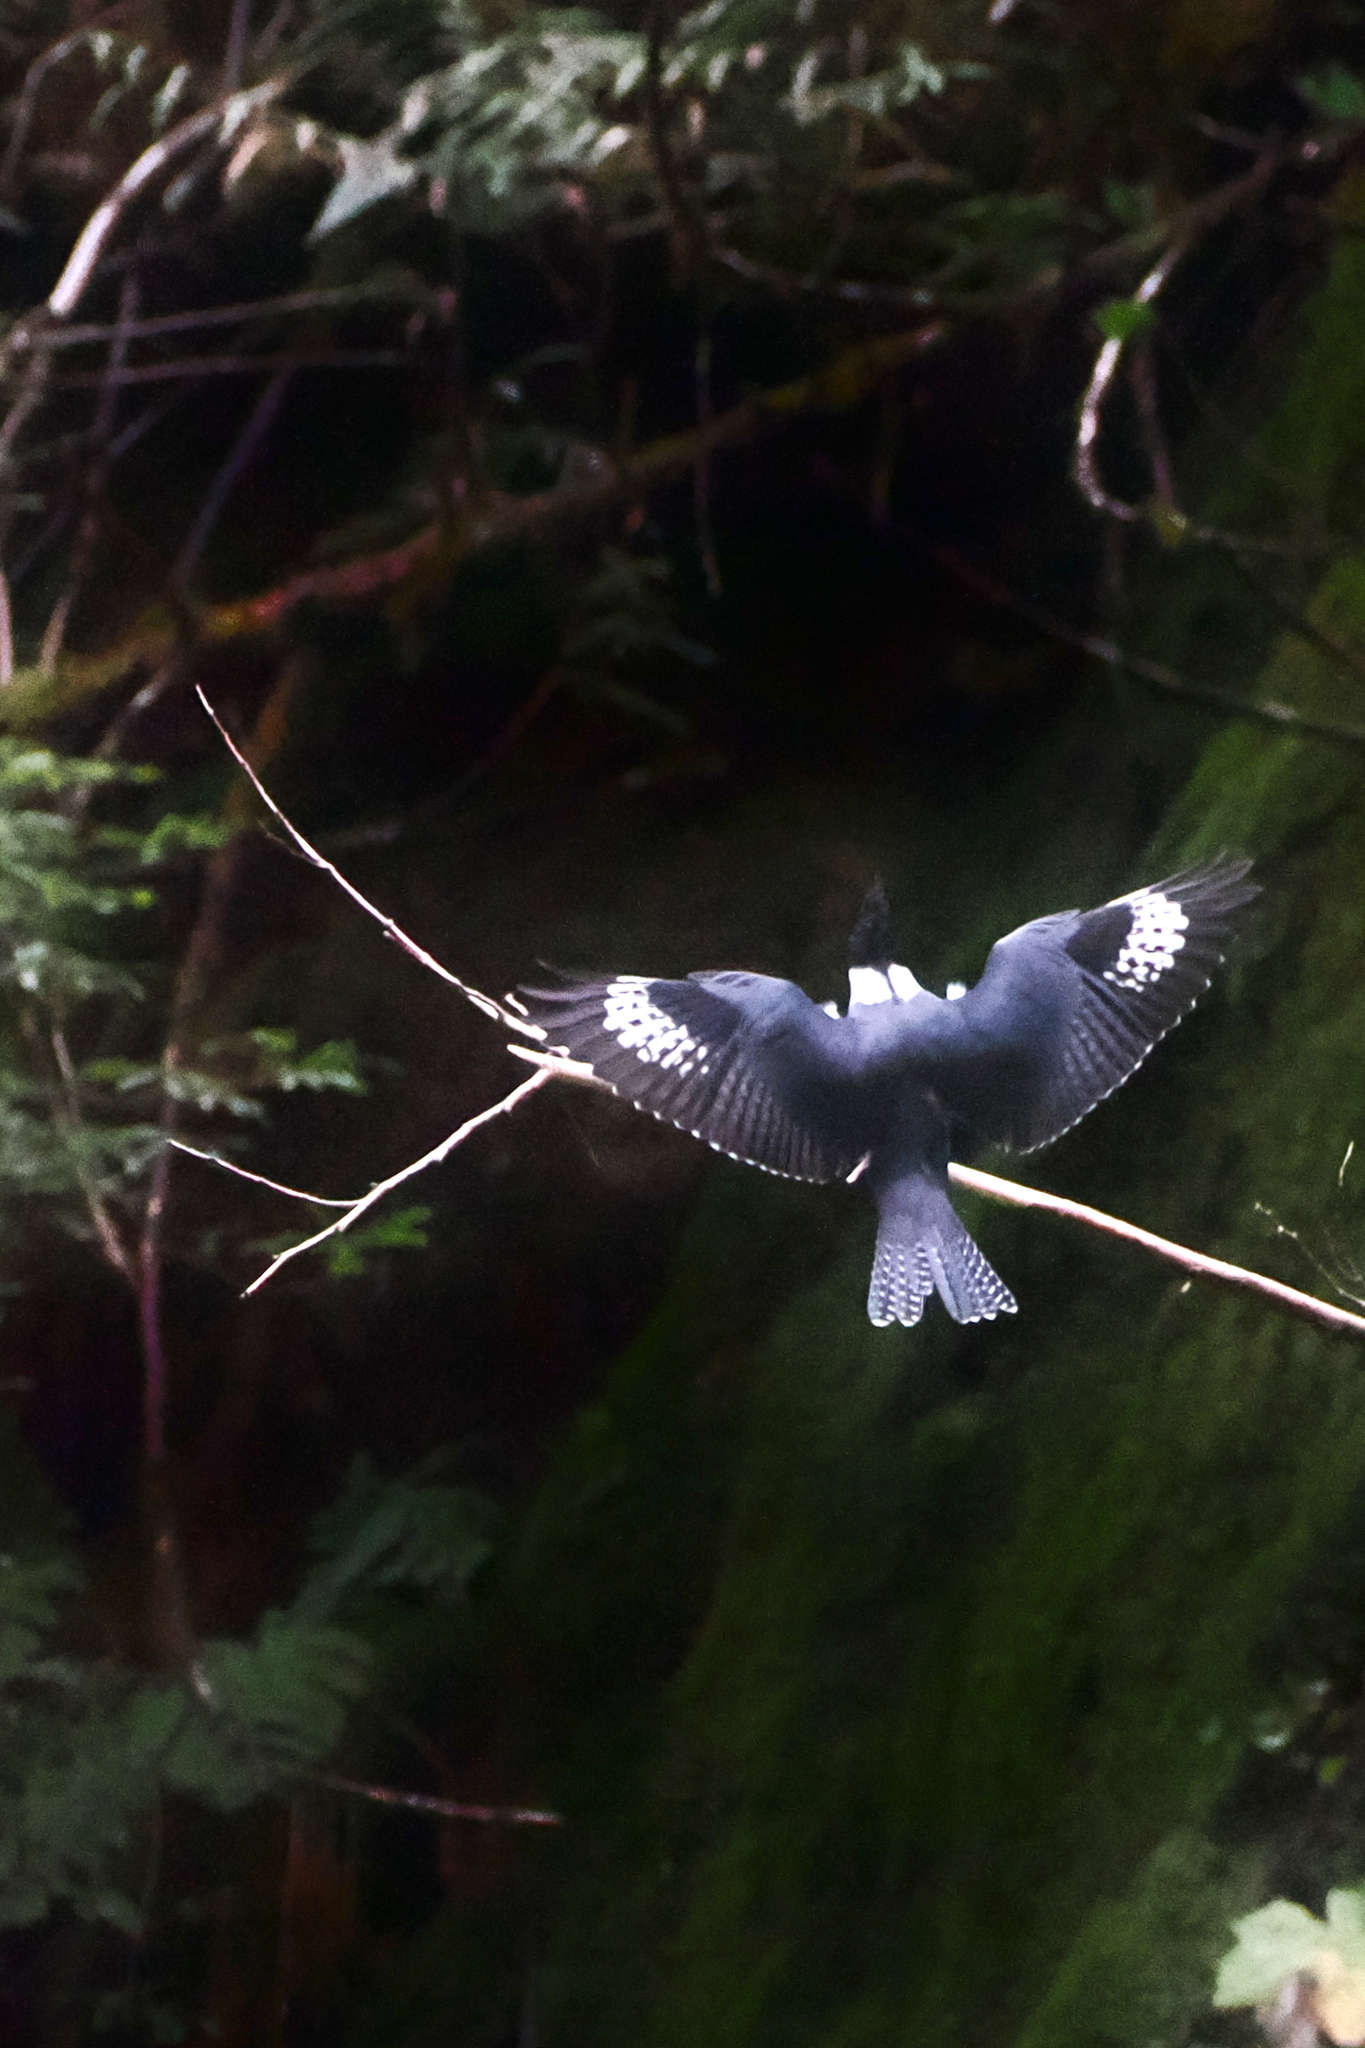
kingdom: Animalia
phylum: Chordata
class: Aves
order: Coraciiformes
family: Alcedinidae
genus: Megaceryle
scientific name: Megaceryle alcyon
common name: Belted kingfisher
